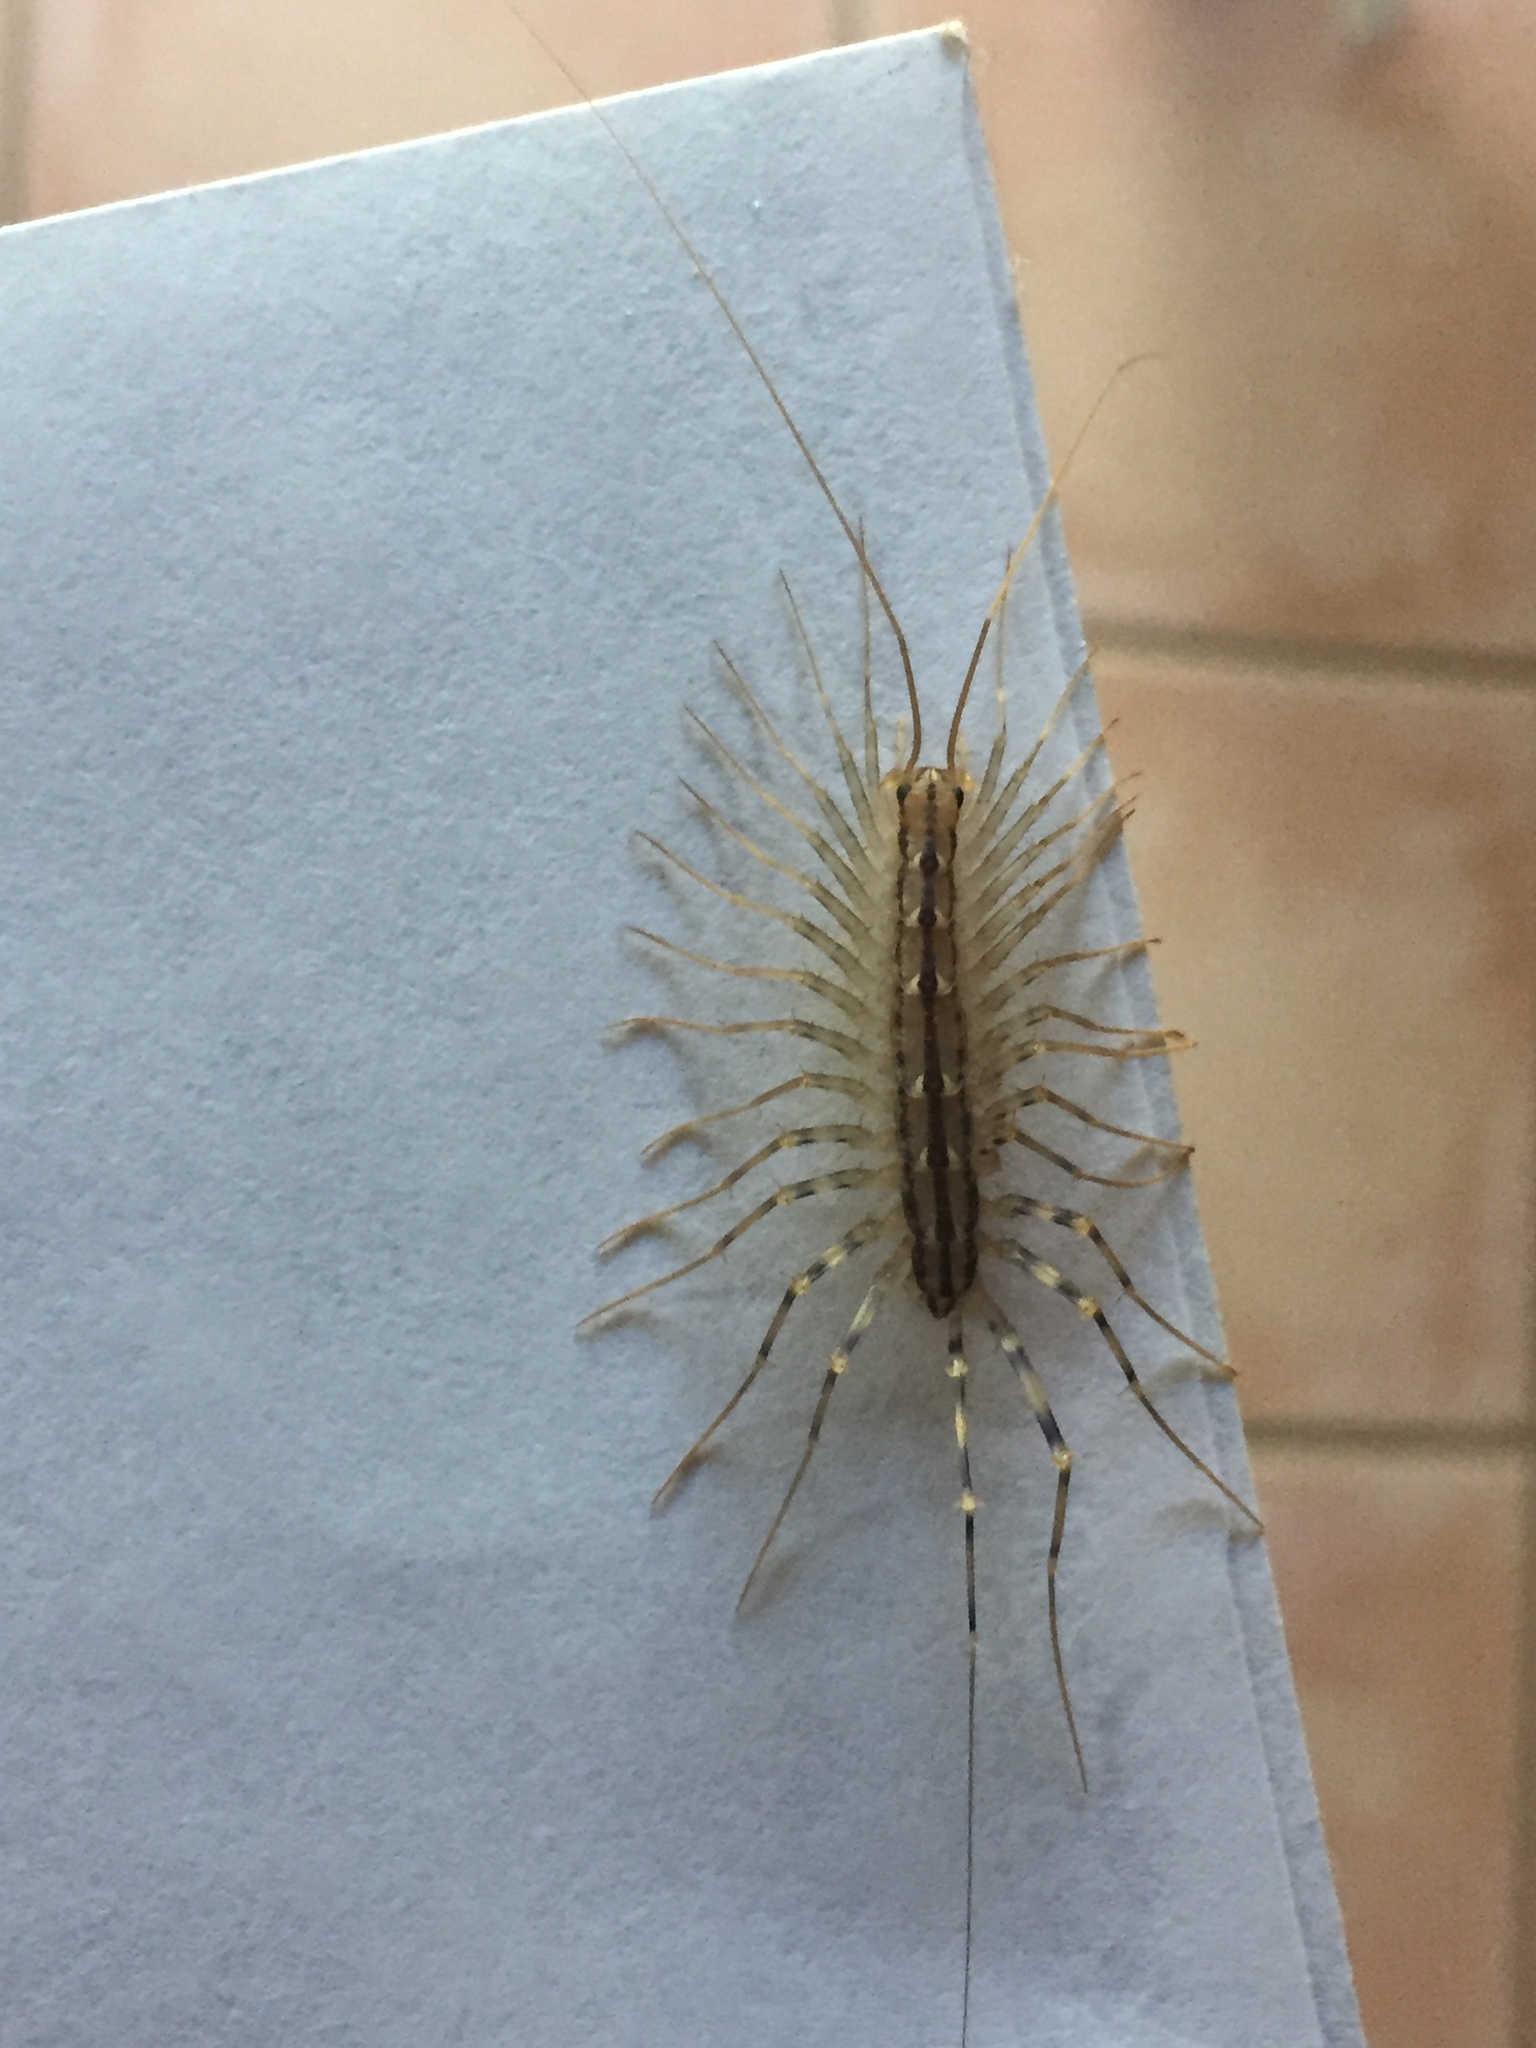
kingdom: Animalia
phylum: Arthropoda
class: Chilopoda
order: Scutigeromorpha
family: Scutigeridae
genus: Scutigera
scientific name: Scutigera coleoptrata
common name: House centipede
